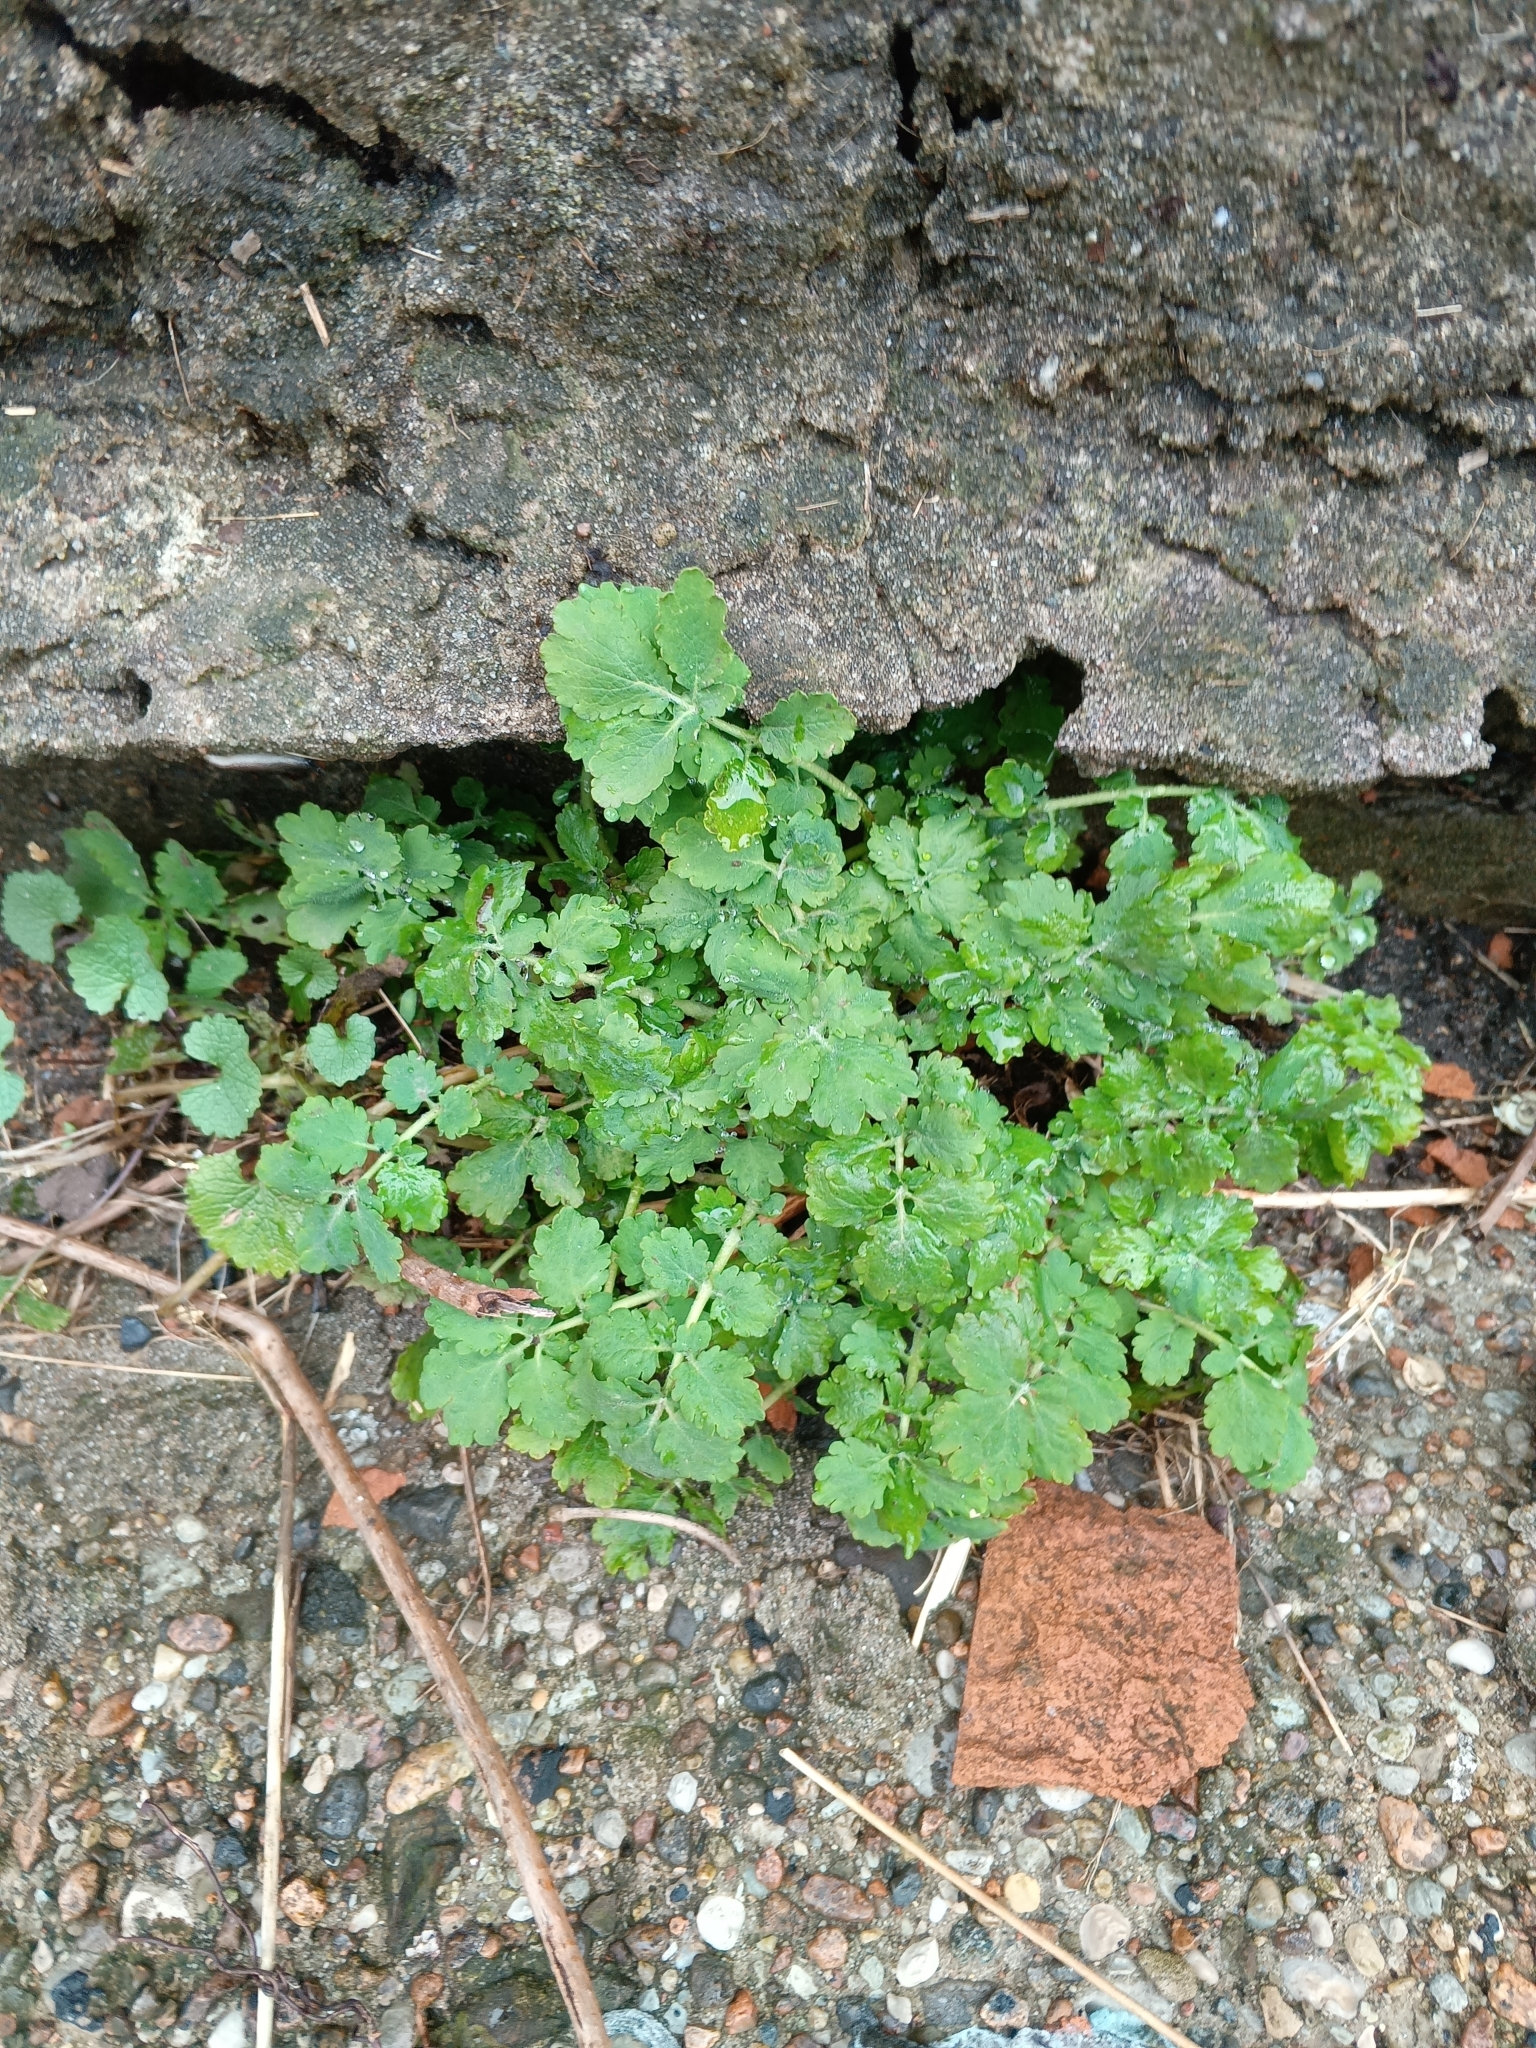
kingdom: Plantae
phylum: Tracheophyta
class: Magnoliopsida
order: Ranunculales
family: Papaveraceae
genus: Chelidonium
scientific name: Chelidonium majus
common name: Greater celandine
